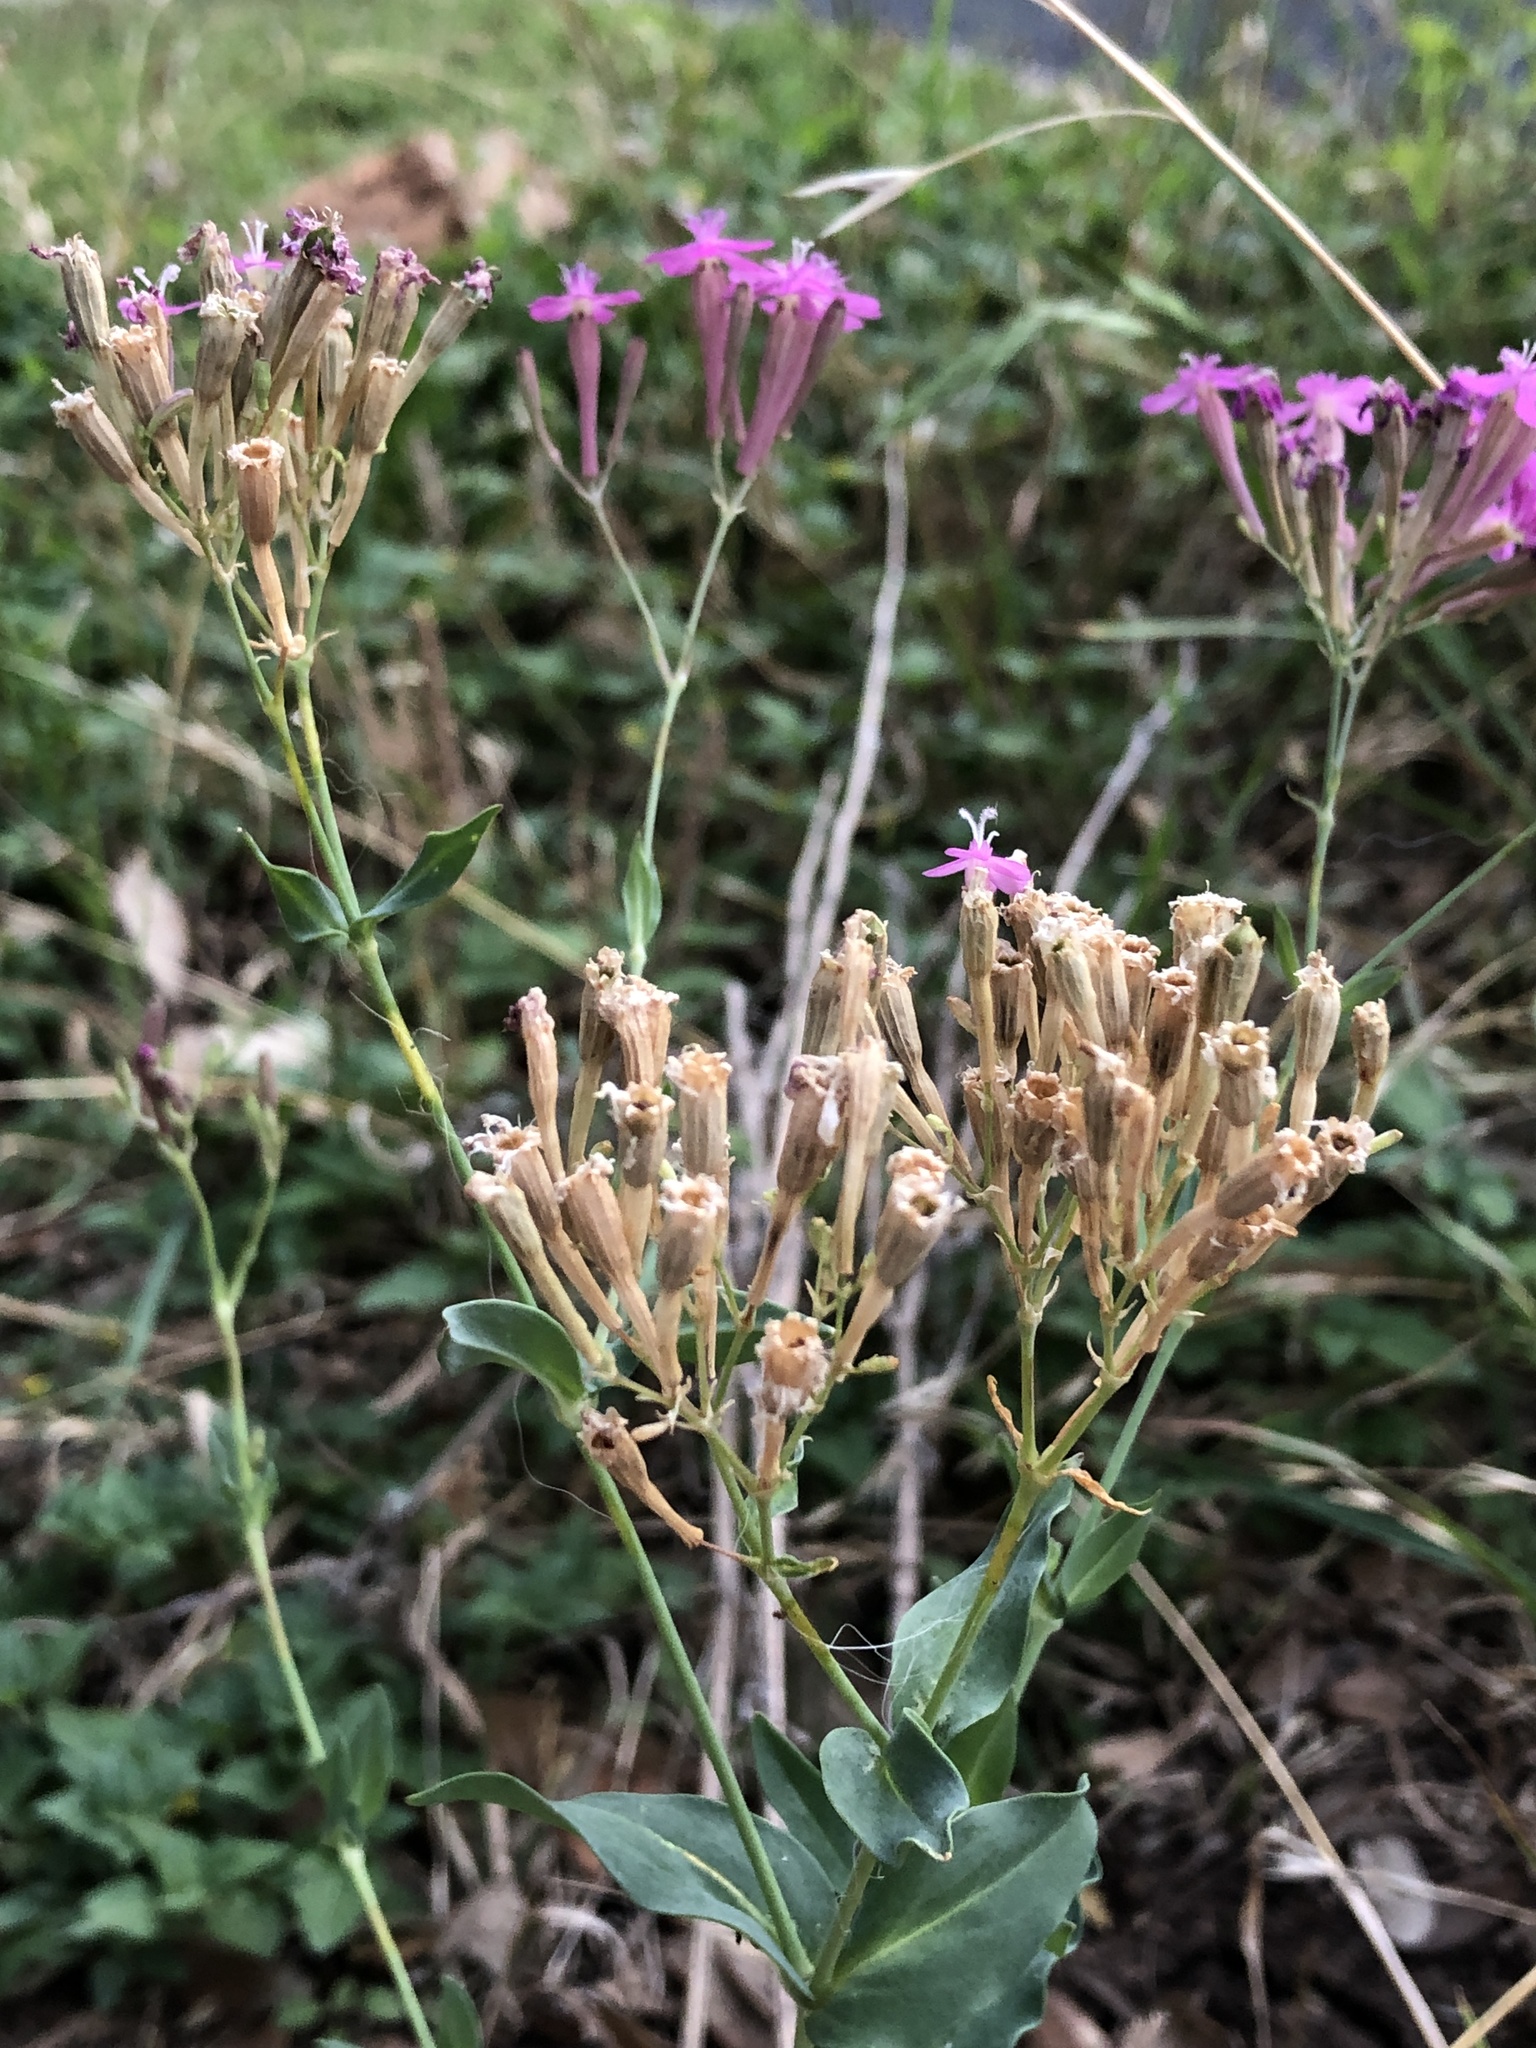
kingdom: Plantae
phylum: Tracheophyta
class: Magnoliopsida
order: Caryophyllales
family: Caryophyllaceae
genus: Atocion
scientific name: Atocion armeria
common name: Sweet william catchfly
